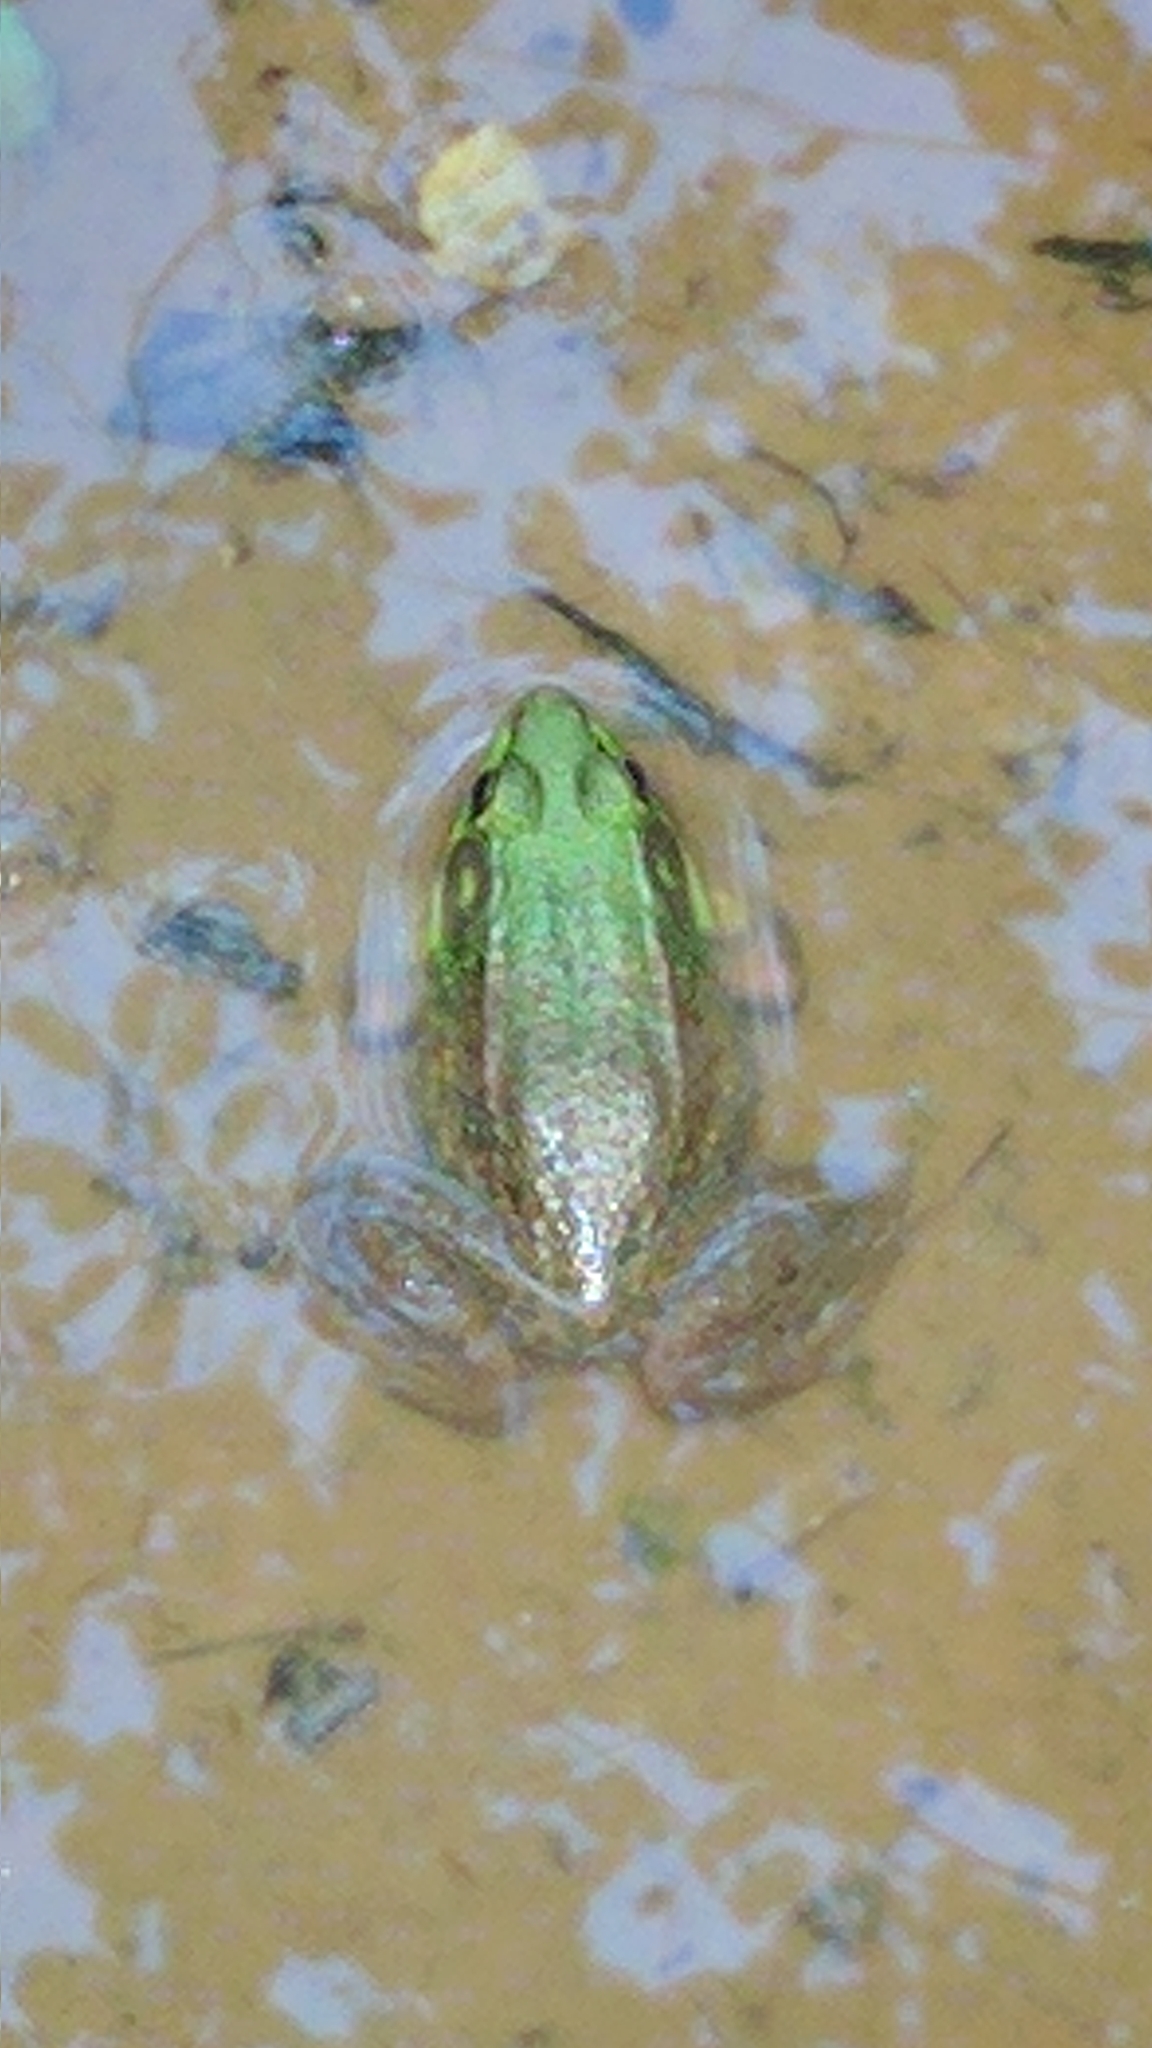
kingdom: Animalia
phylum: Chordata
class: Amphibia
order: Anura
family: Ranidae
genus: Lithobates
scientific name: Lithobates clamitans
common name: Green frog
